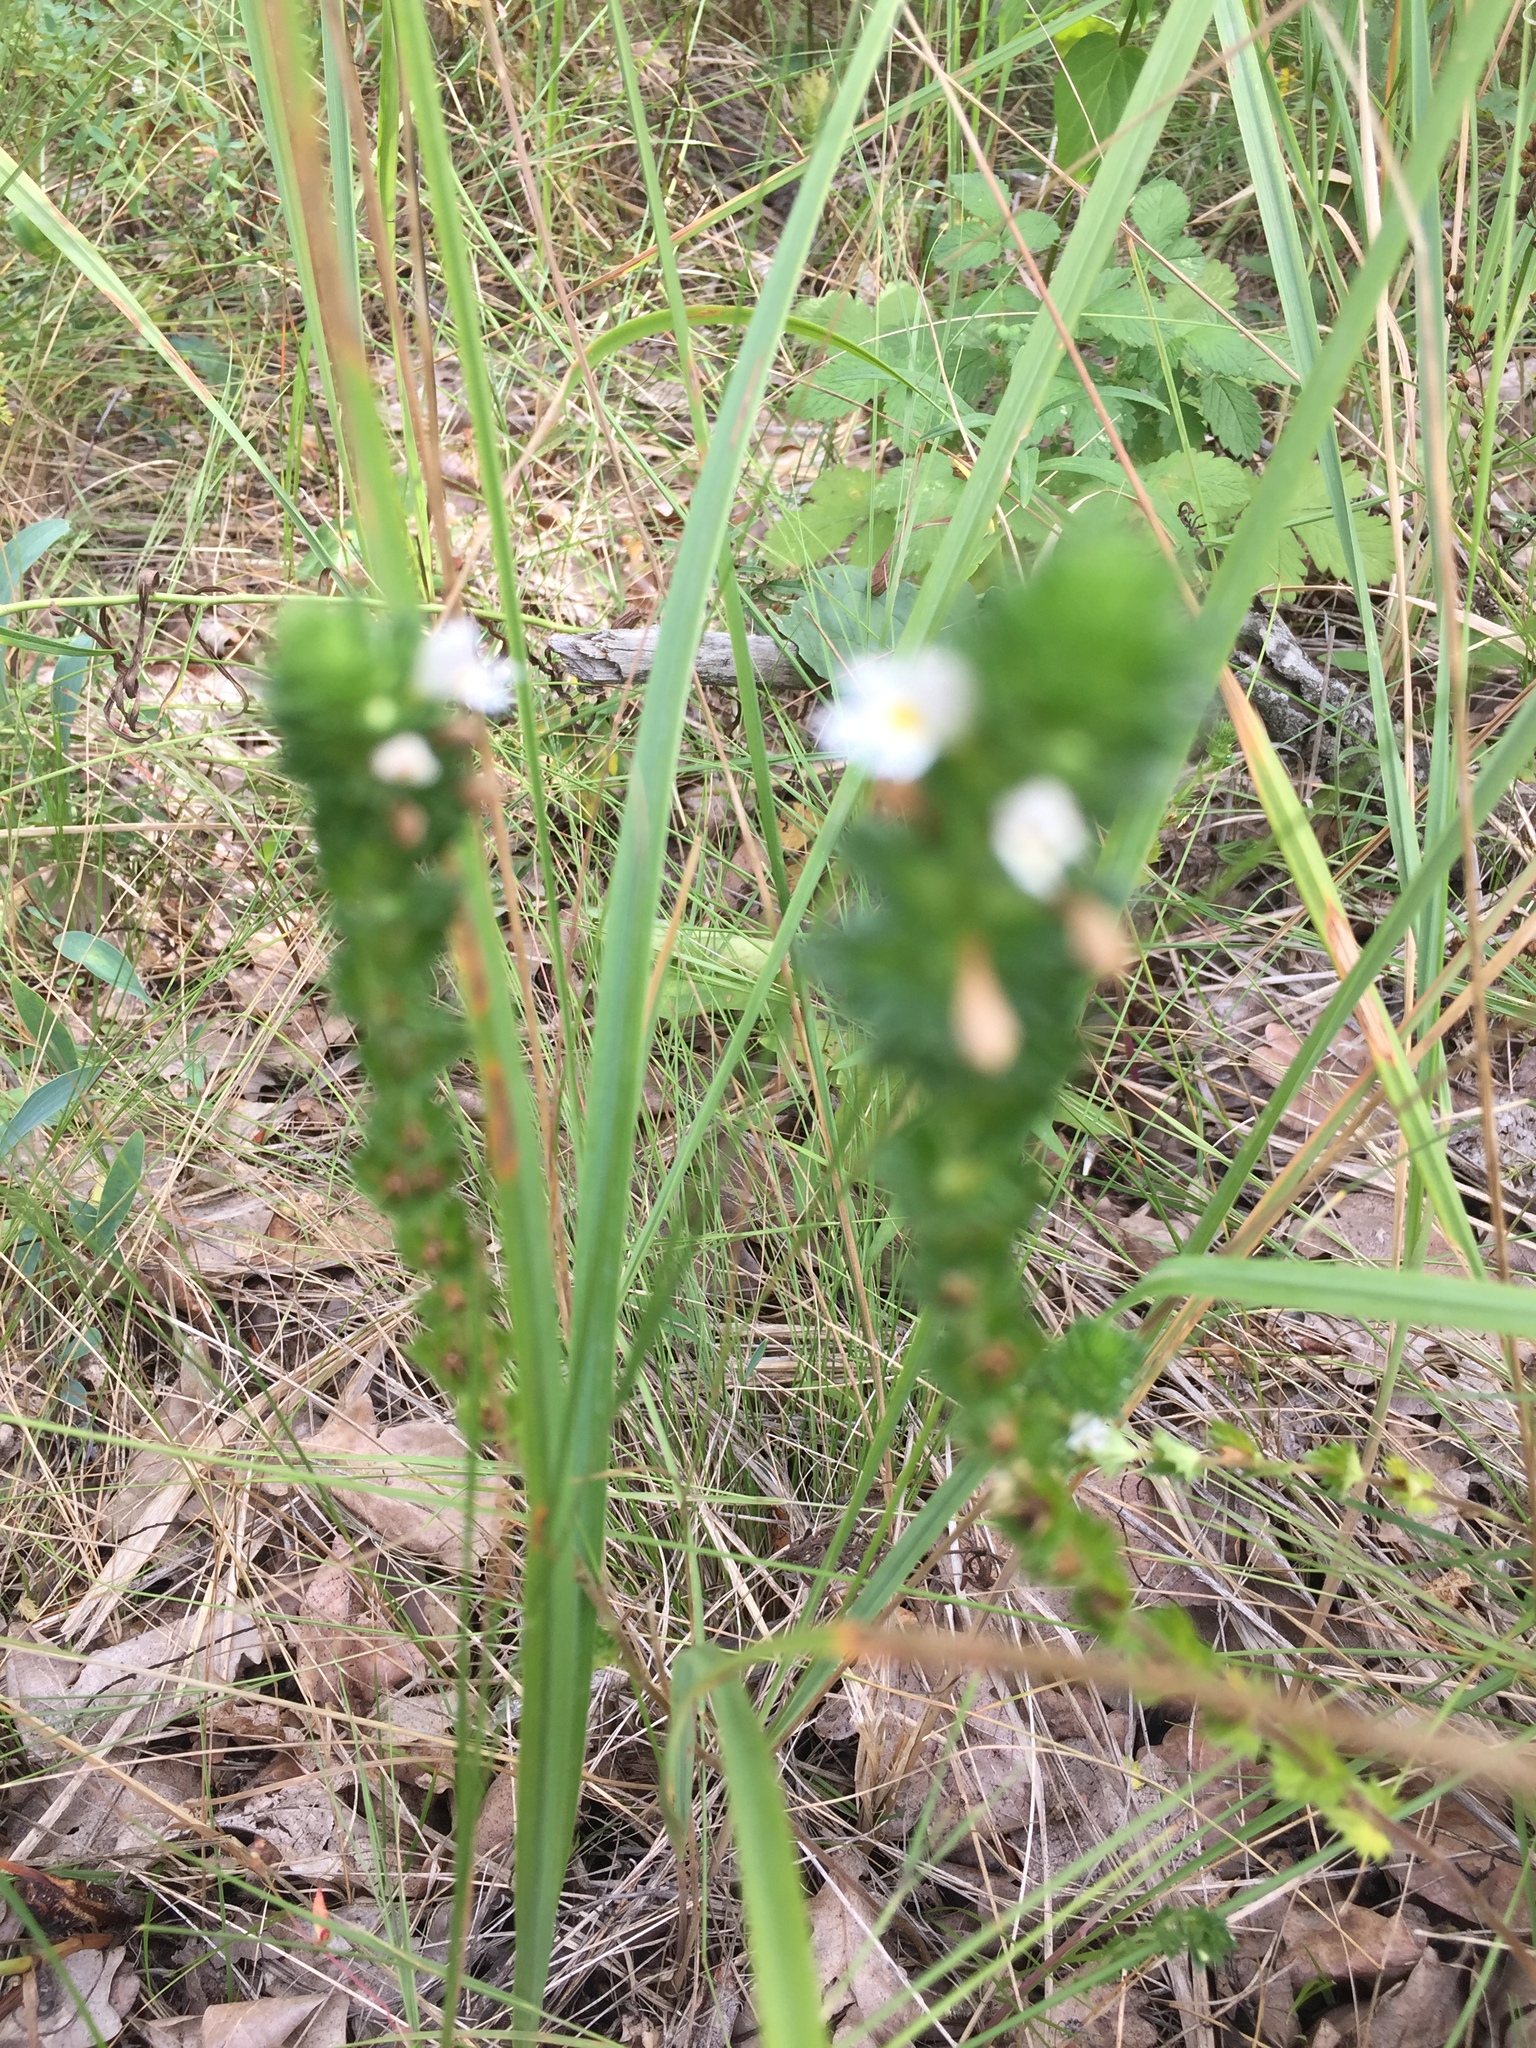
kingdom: Plantae
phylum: Tracheophyta
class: Magnoliopsida
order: Lamiales
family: Orobanchaceae
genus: Euphrasia
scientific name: Euphrasia stricta
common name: Drug eyebright
